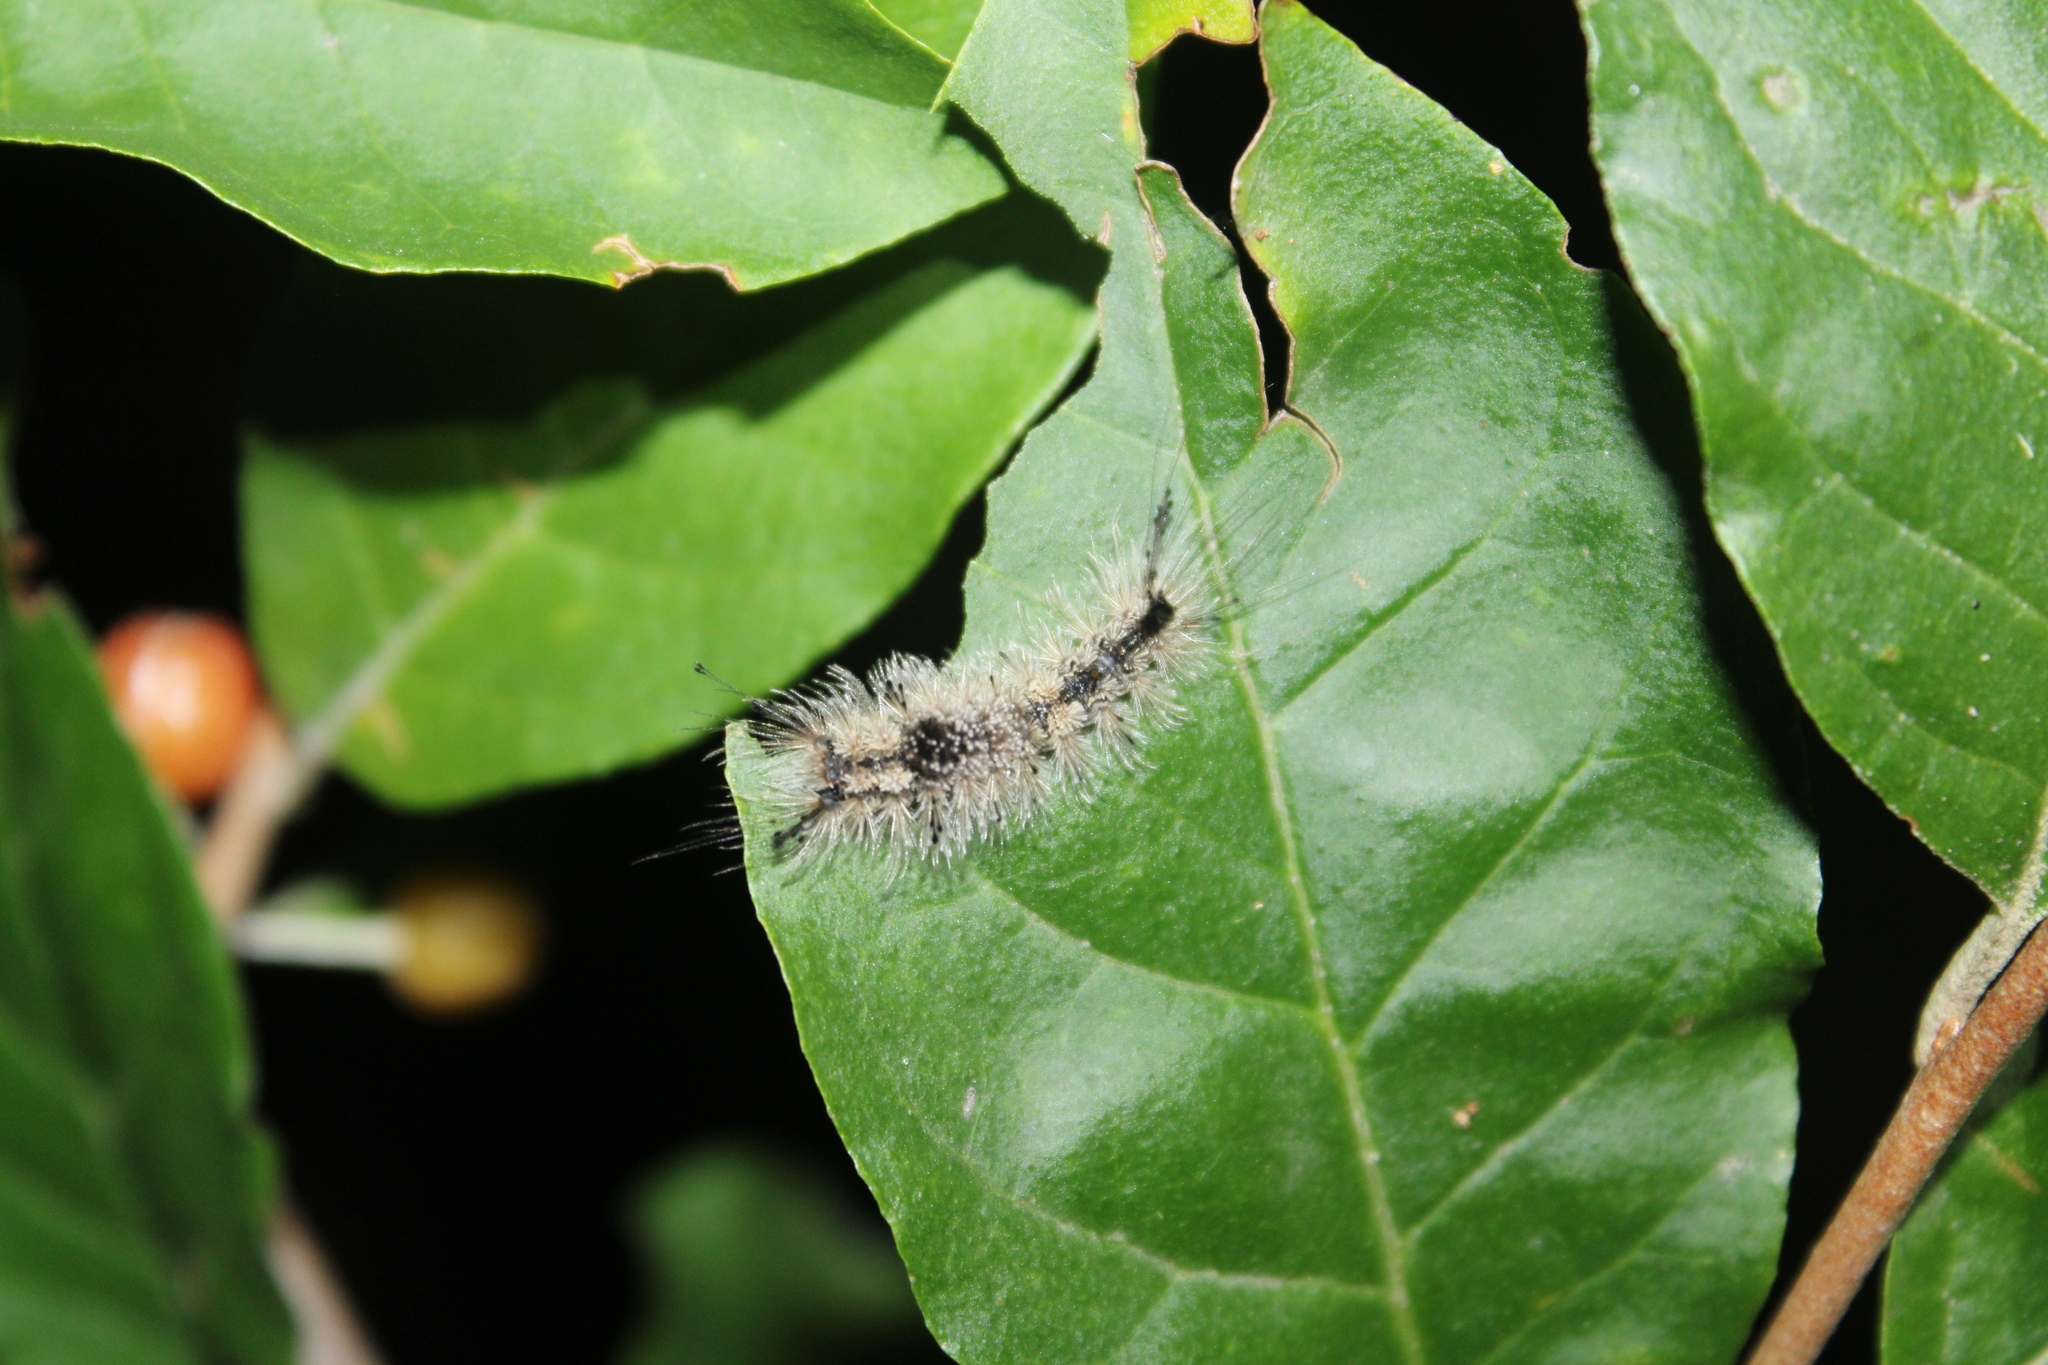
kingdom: Animalia
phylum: Arthropoda
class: Insecta
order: Lepidoptera
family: Erebidae
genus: Dasychira
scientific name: Dasychira vagans
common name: Variable tussock moth
